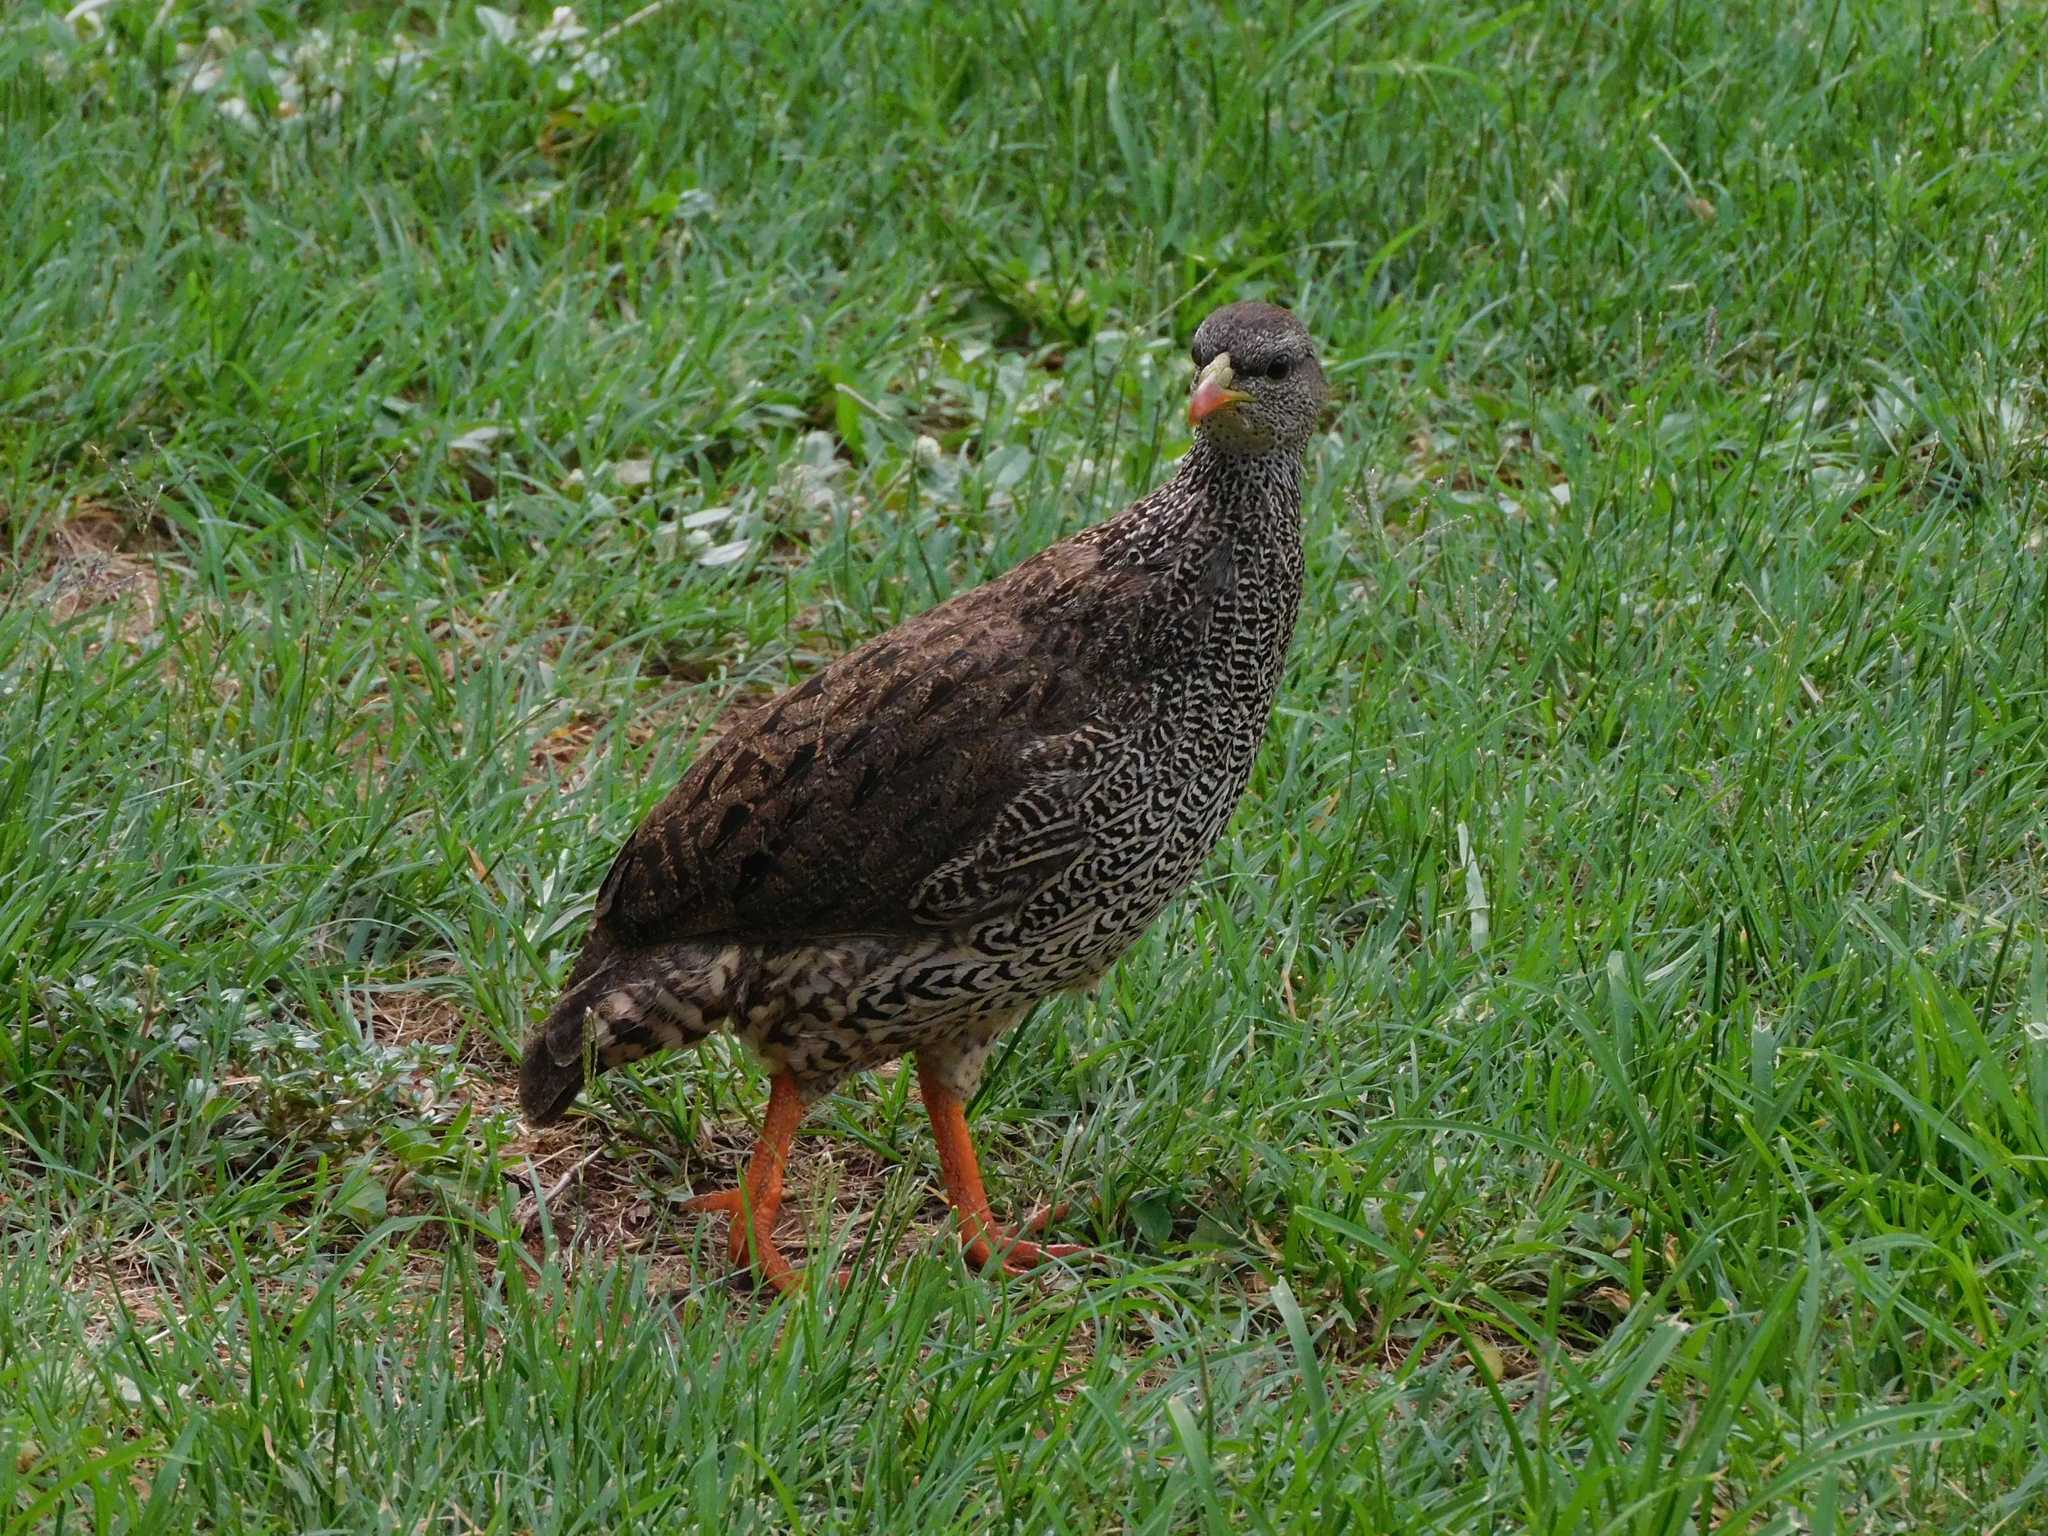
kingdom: Animalia
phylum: Chordata
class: Aves
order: Galliformes
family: Phasianidae
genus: Pternistis
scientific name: Pternistis natalensis
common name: Natal spurfowl
